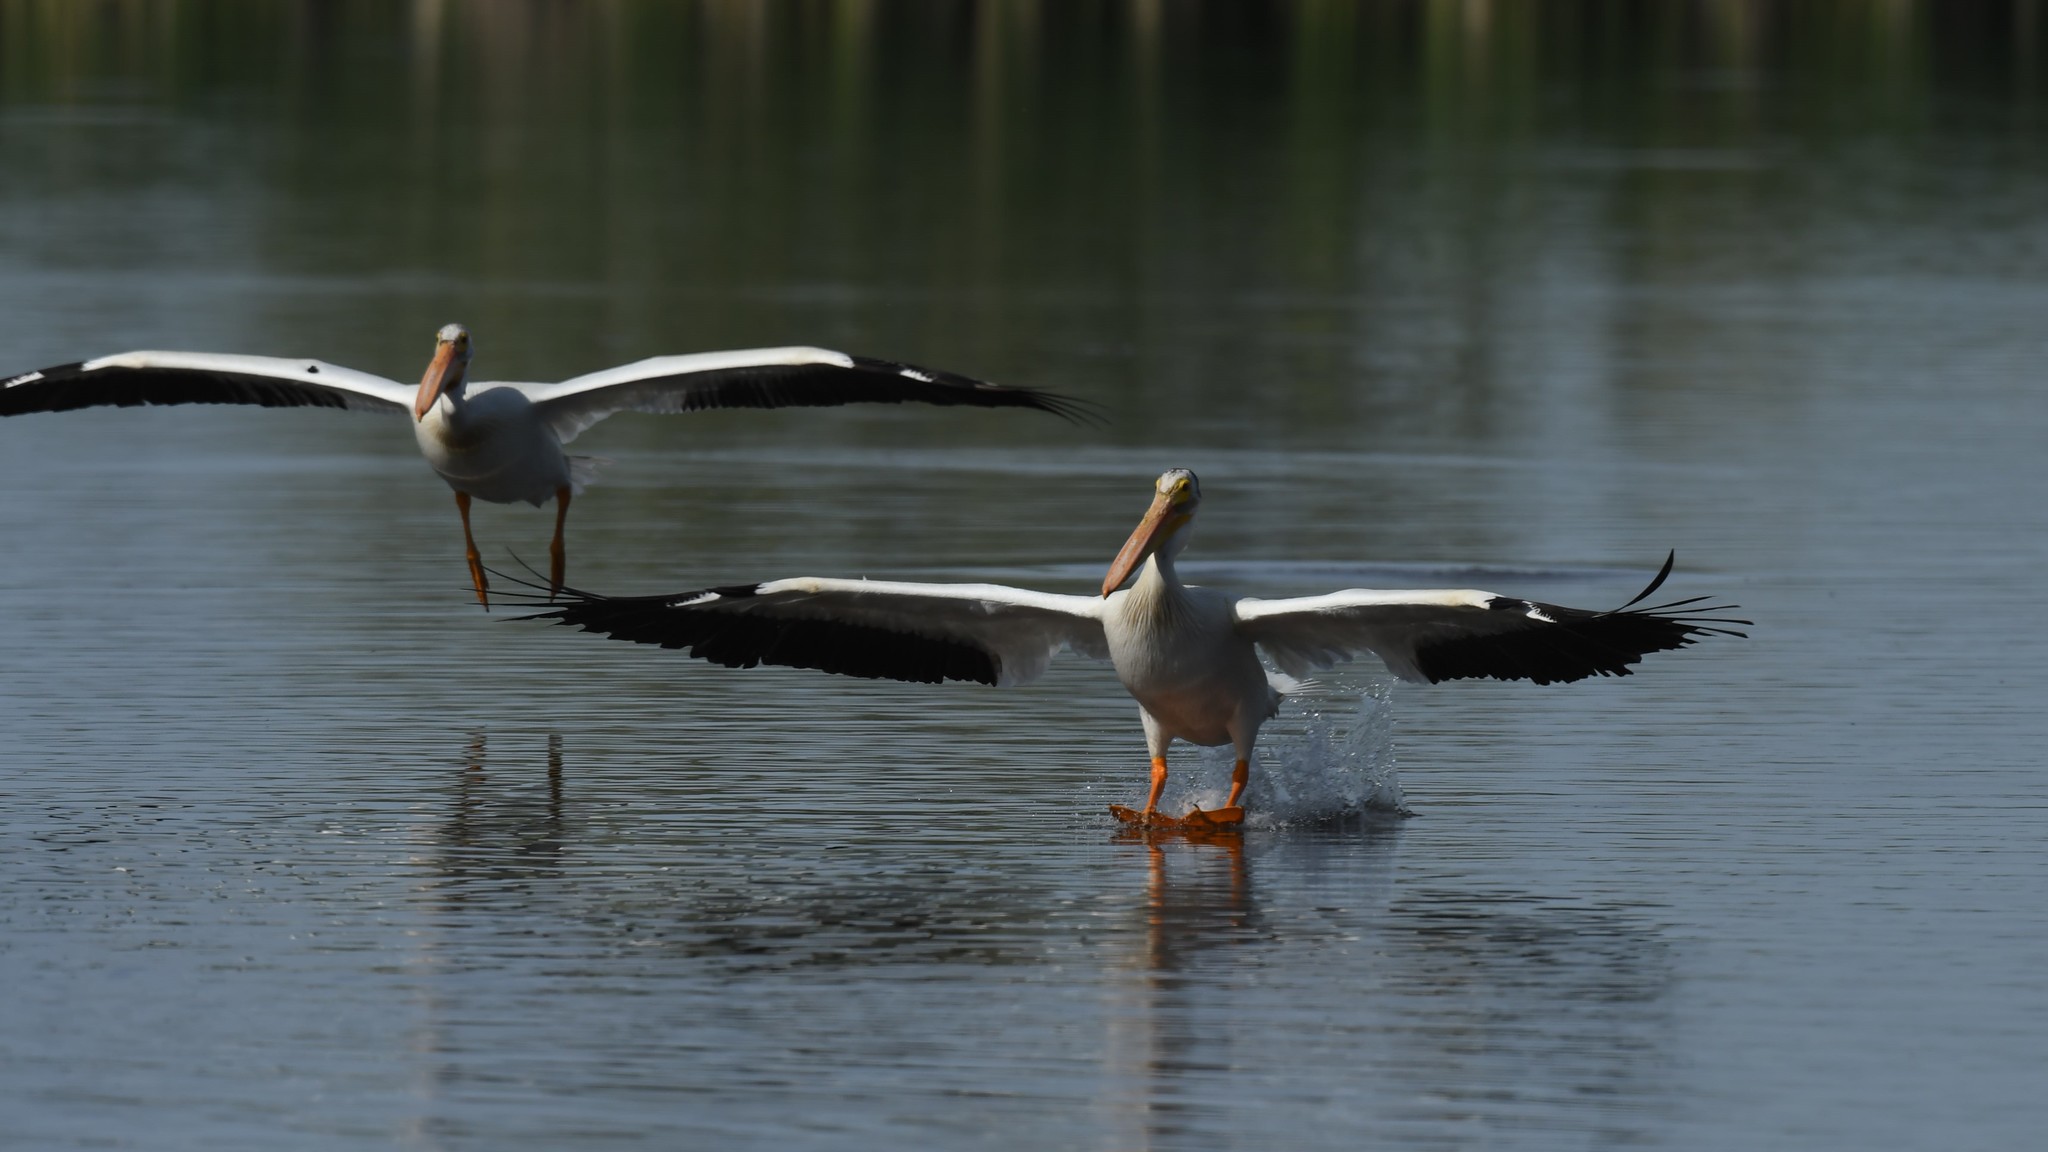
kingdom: Animalia
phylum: Chordata
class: Aves
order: Pelecaniformes
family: Pelecanidae
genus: Pelecanus
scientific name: Pelecanus erythrorhynchos
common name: American white pelican
